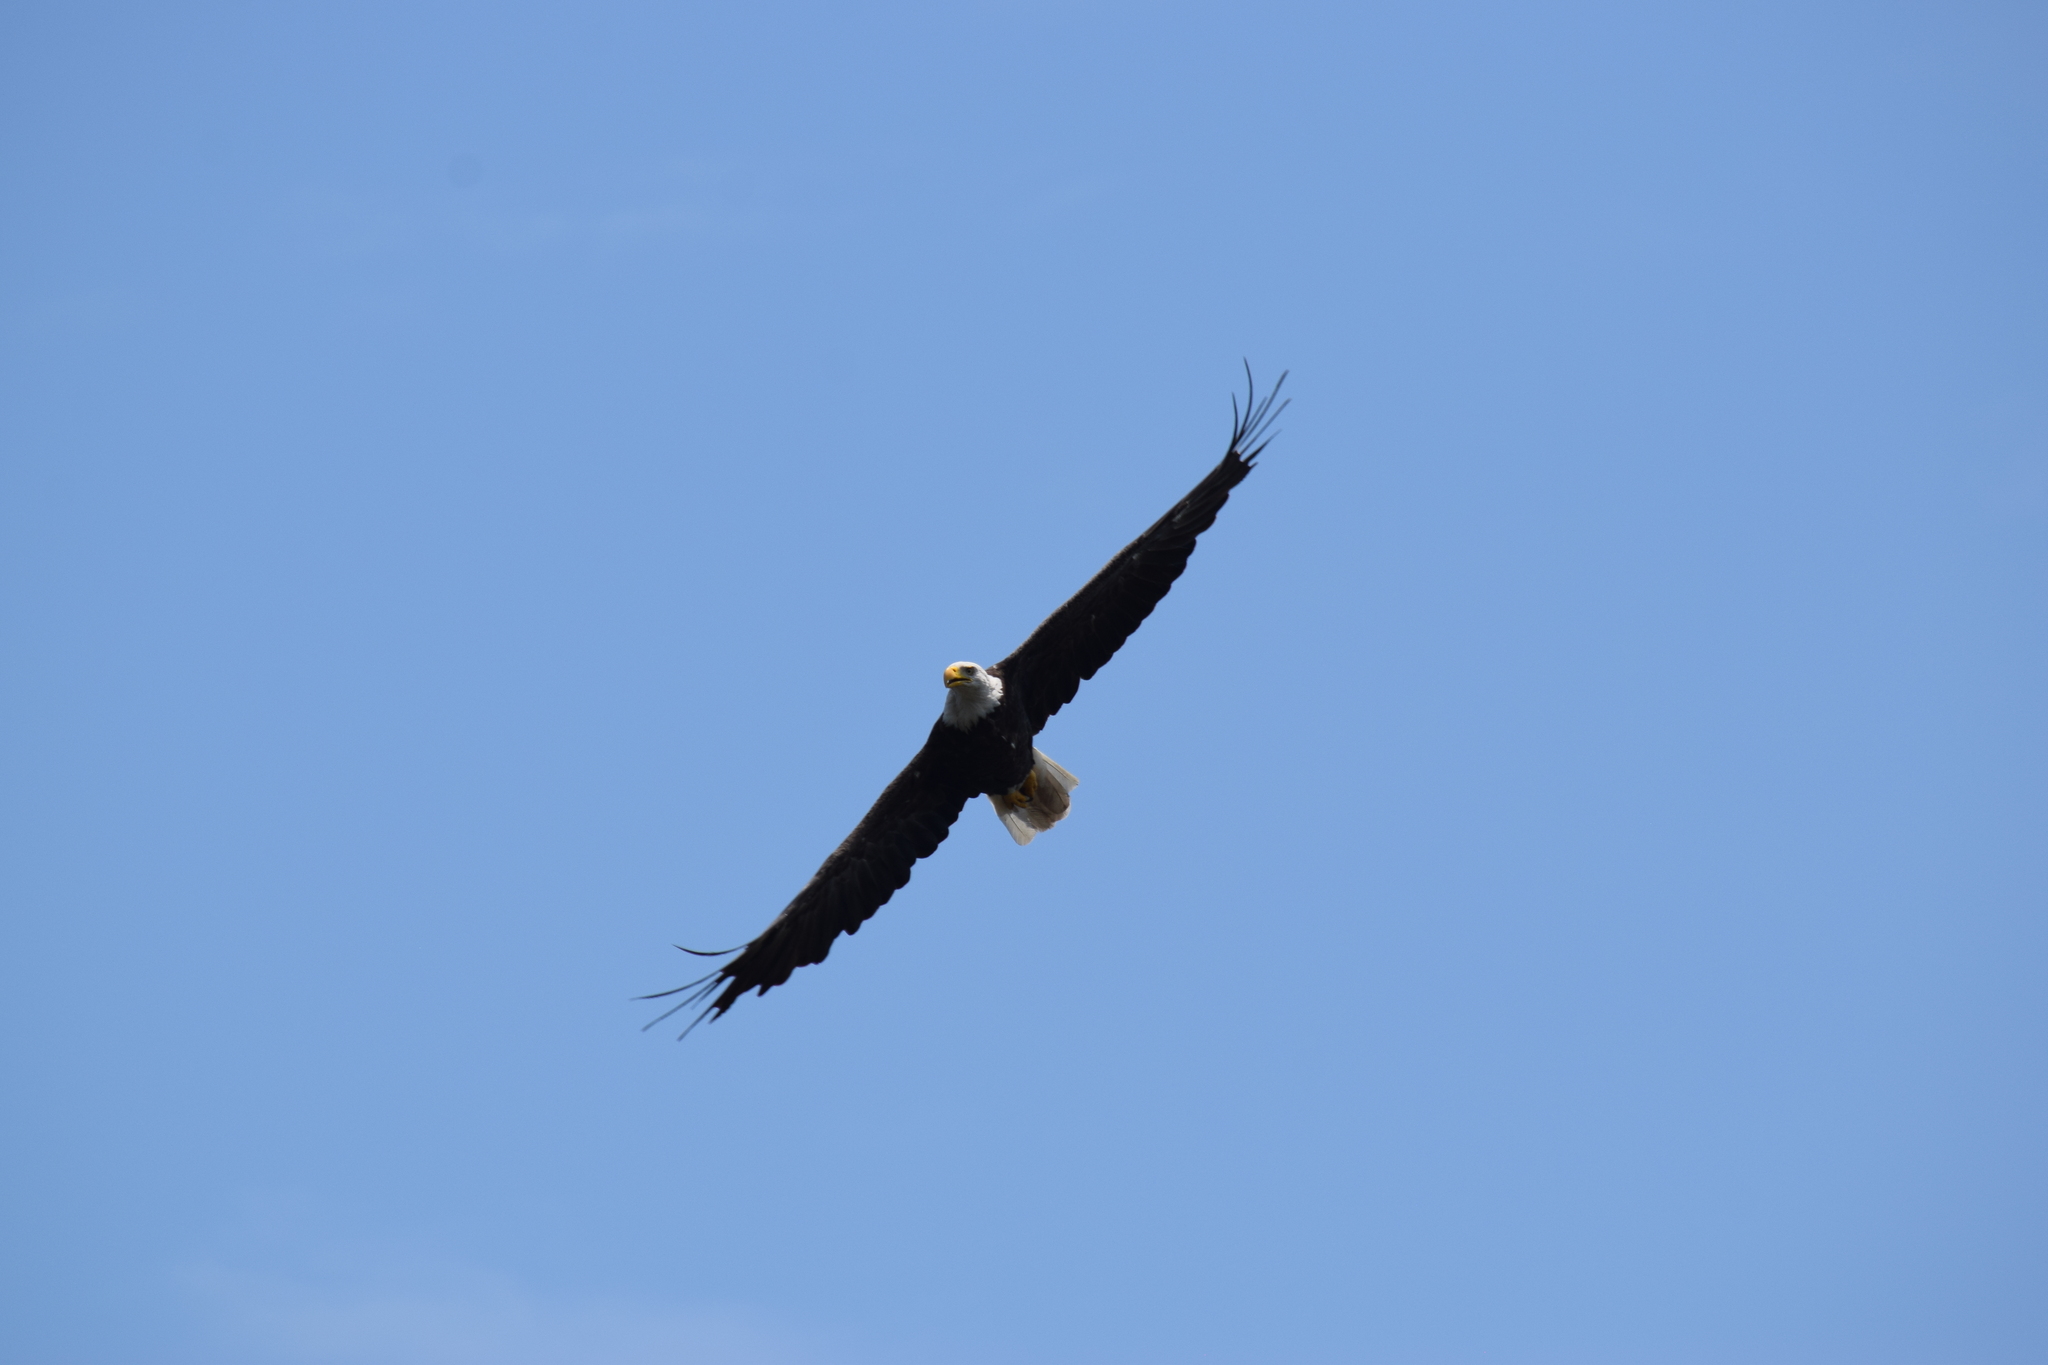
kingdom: Animalia
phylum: Chordata
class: Aves
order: Accipitriformes
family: Accipitridae
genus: Haliaeetus
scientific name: Haliaeetus leucocephalus
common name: Bald eagle
